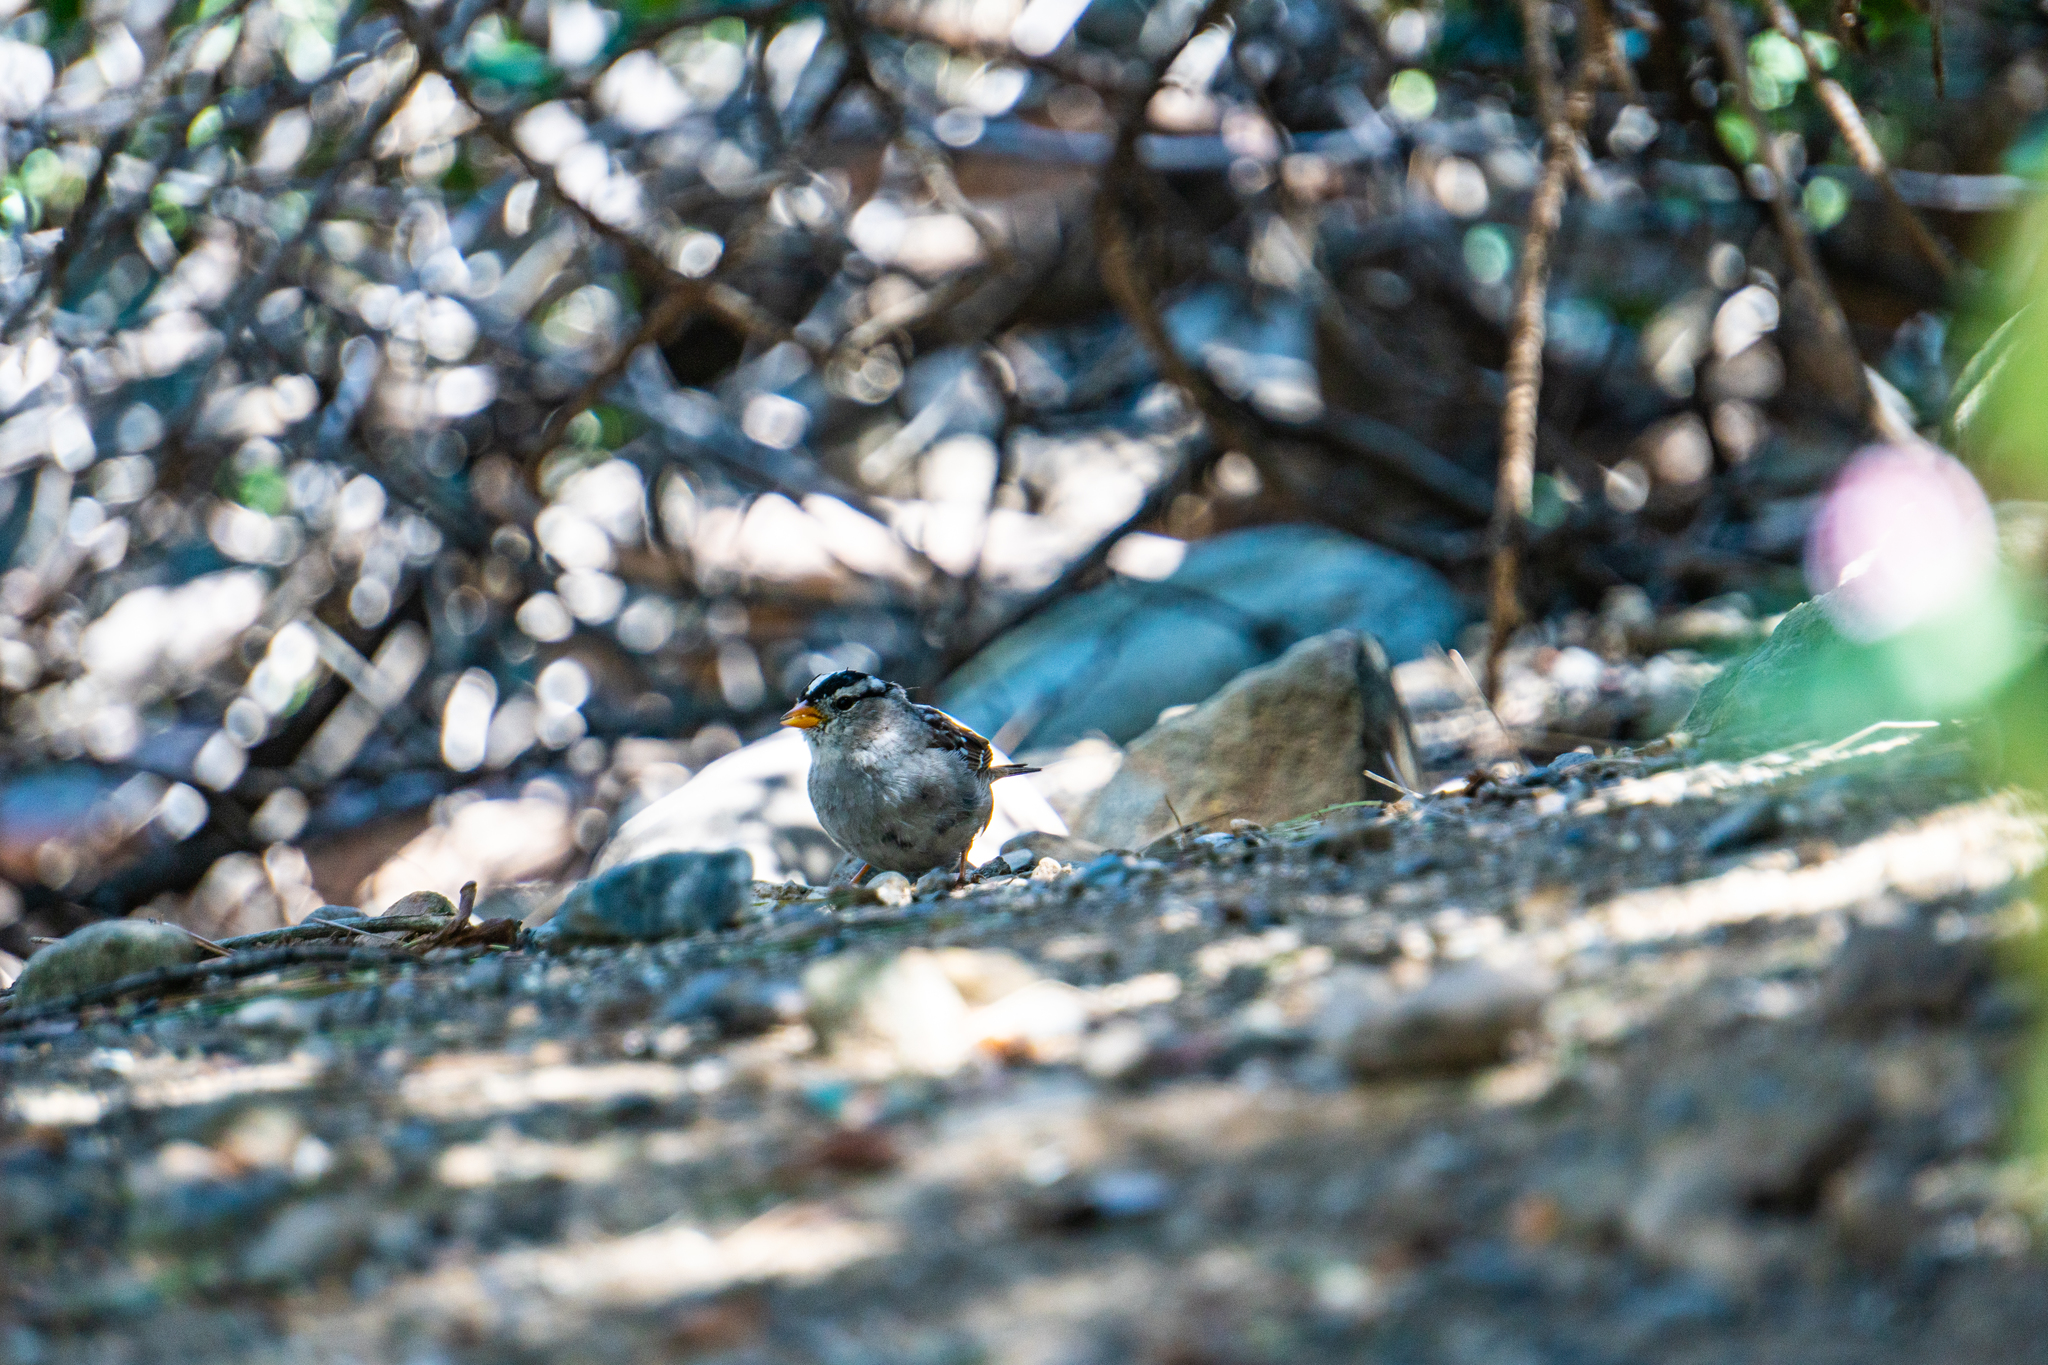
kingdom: Animalia
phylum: Chordata
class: Aves
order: Passeriformes
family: Passerellidae
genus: Zonotrichia
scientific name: Zonotrichia leucophrys
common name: White-crowned sparrow
